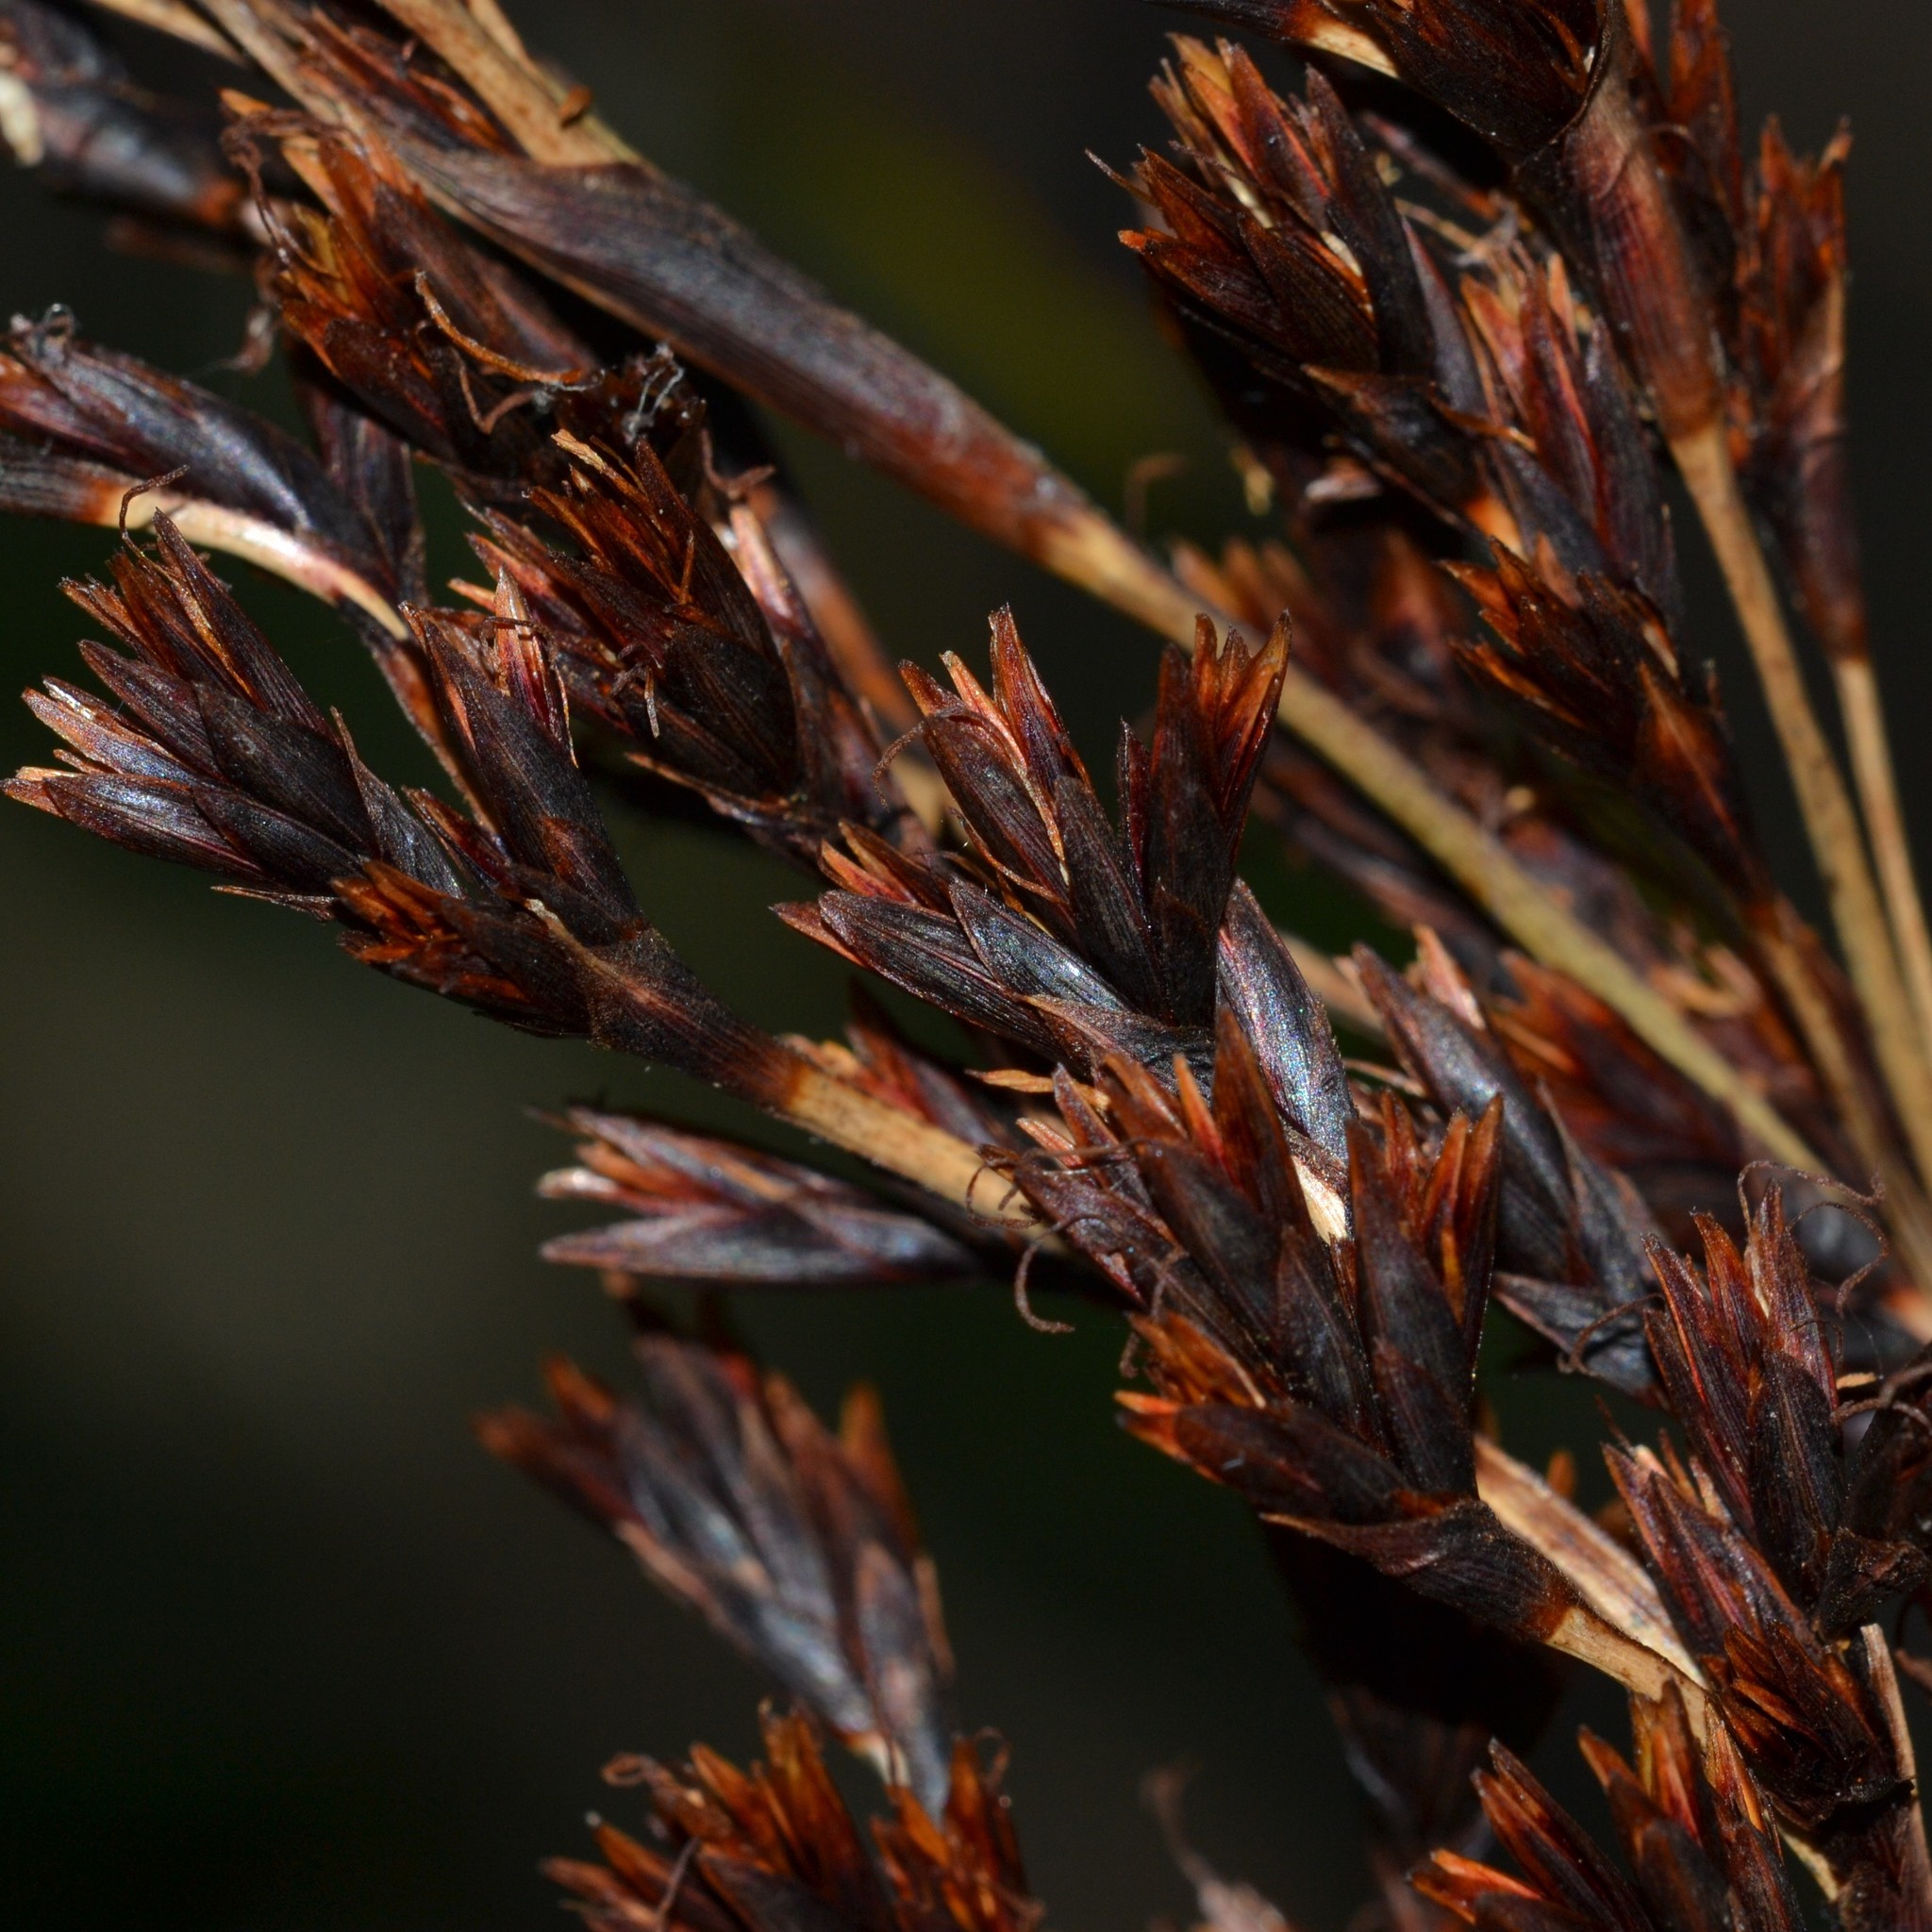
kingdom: Plantae
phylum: Tracheophyta
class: Liliopsida
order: Poales
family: Cyperaceae
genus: Machaerina
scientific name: Machaerina angustifolia
